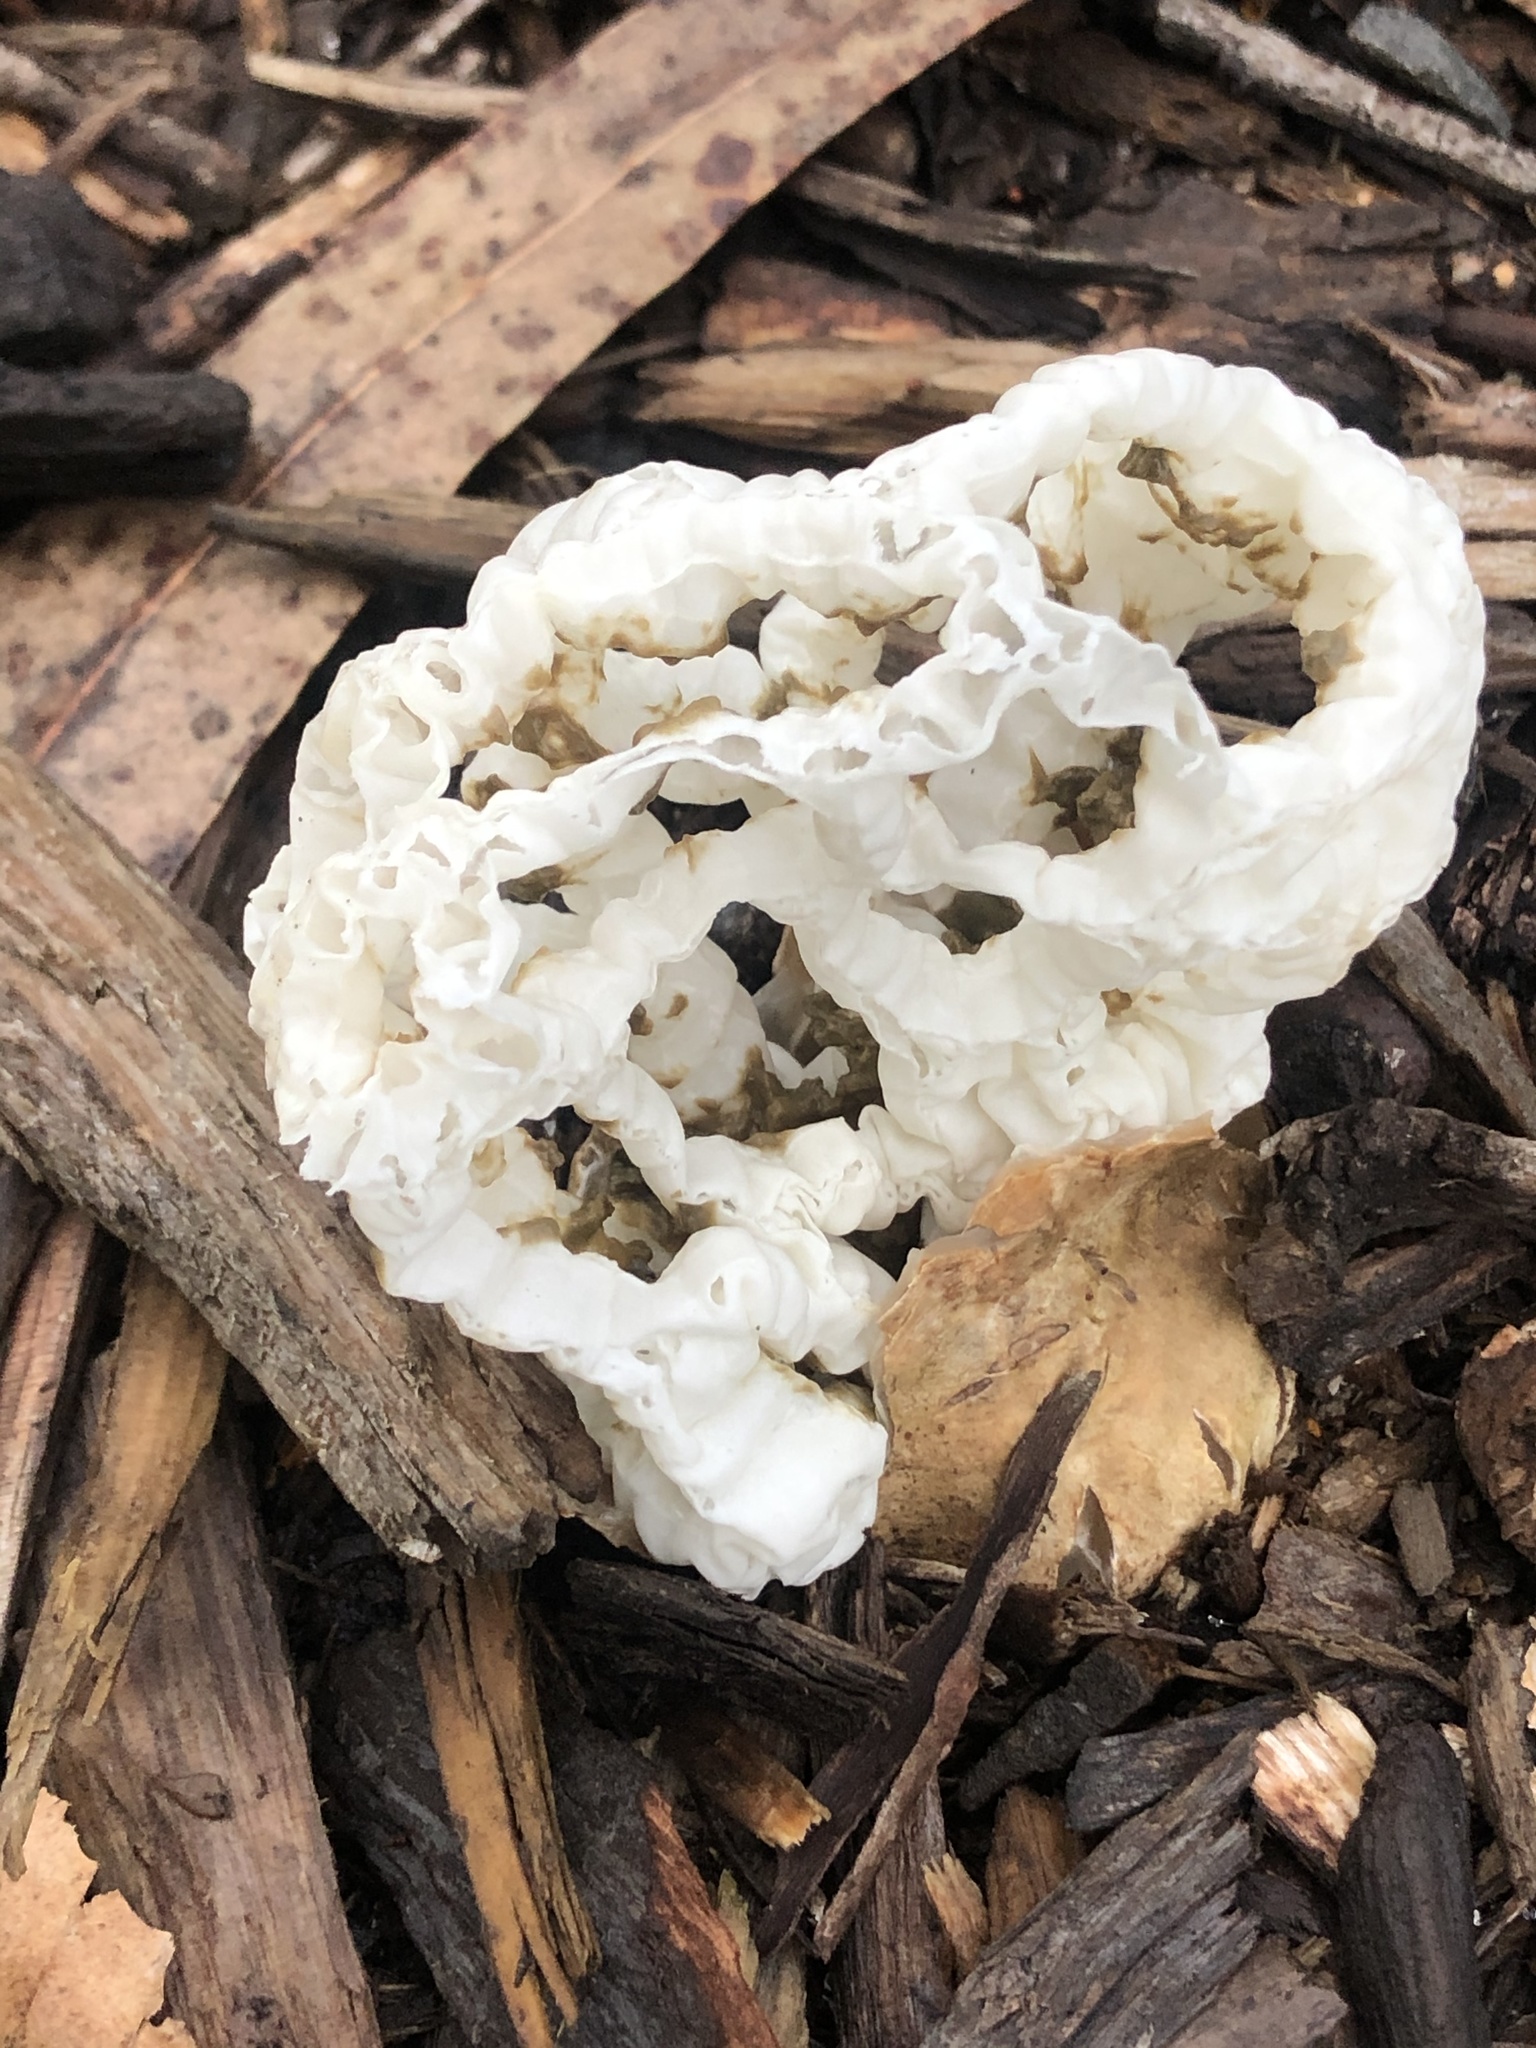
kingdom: Fungi
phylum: Basidiomycota
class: Agaricomycetes
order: Phallales
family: Phallaceae
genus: Ileodictyon
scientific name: Ileodictyon cibarium
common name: Basket fungus
